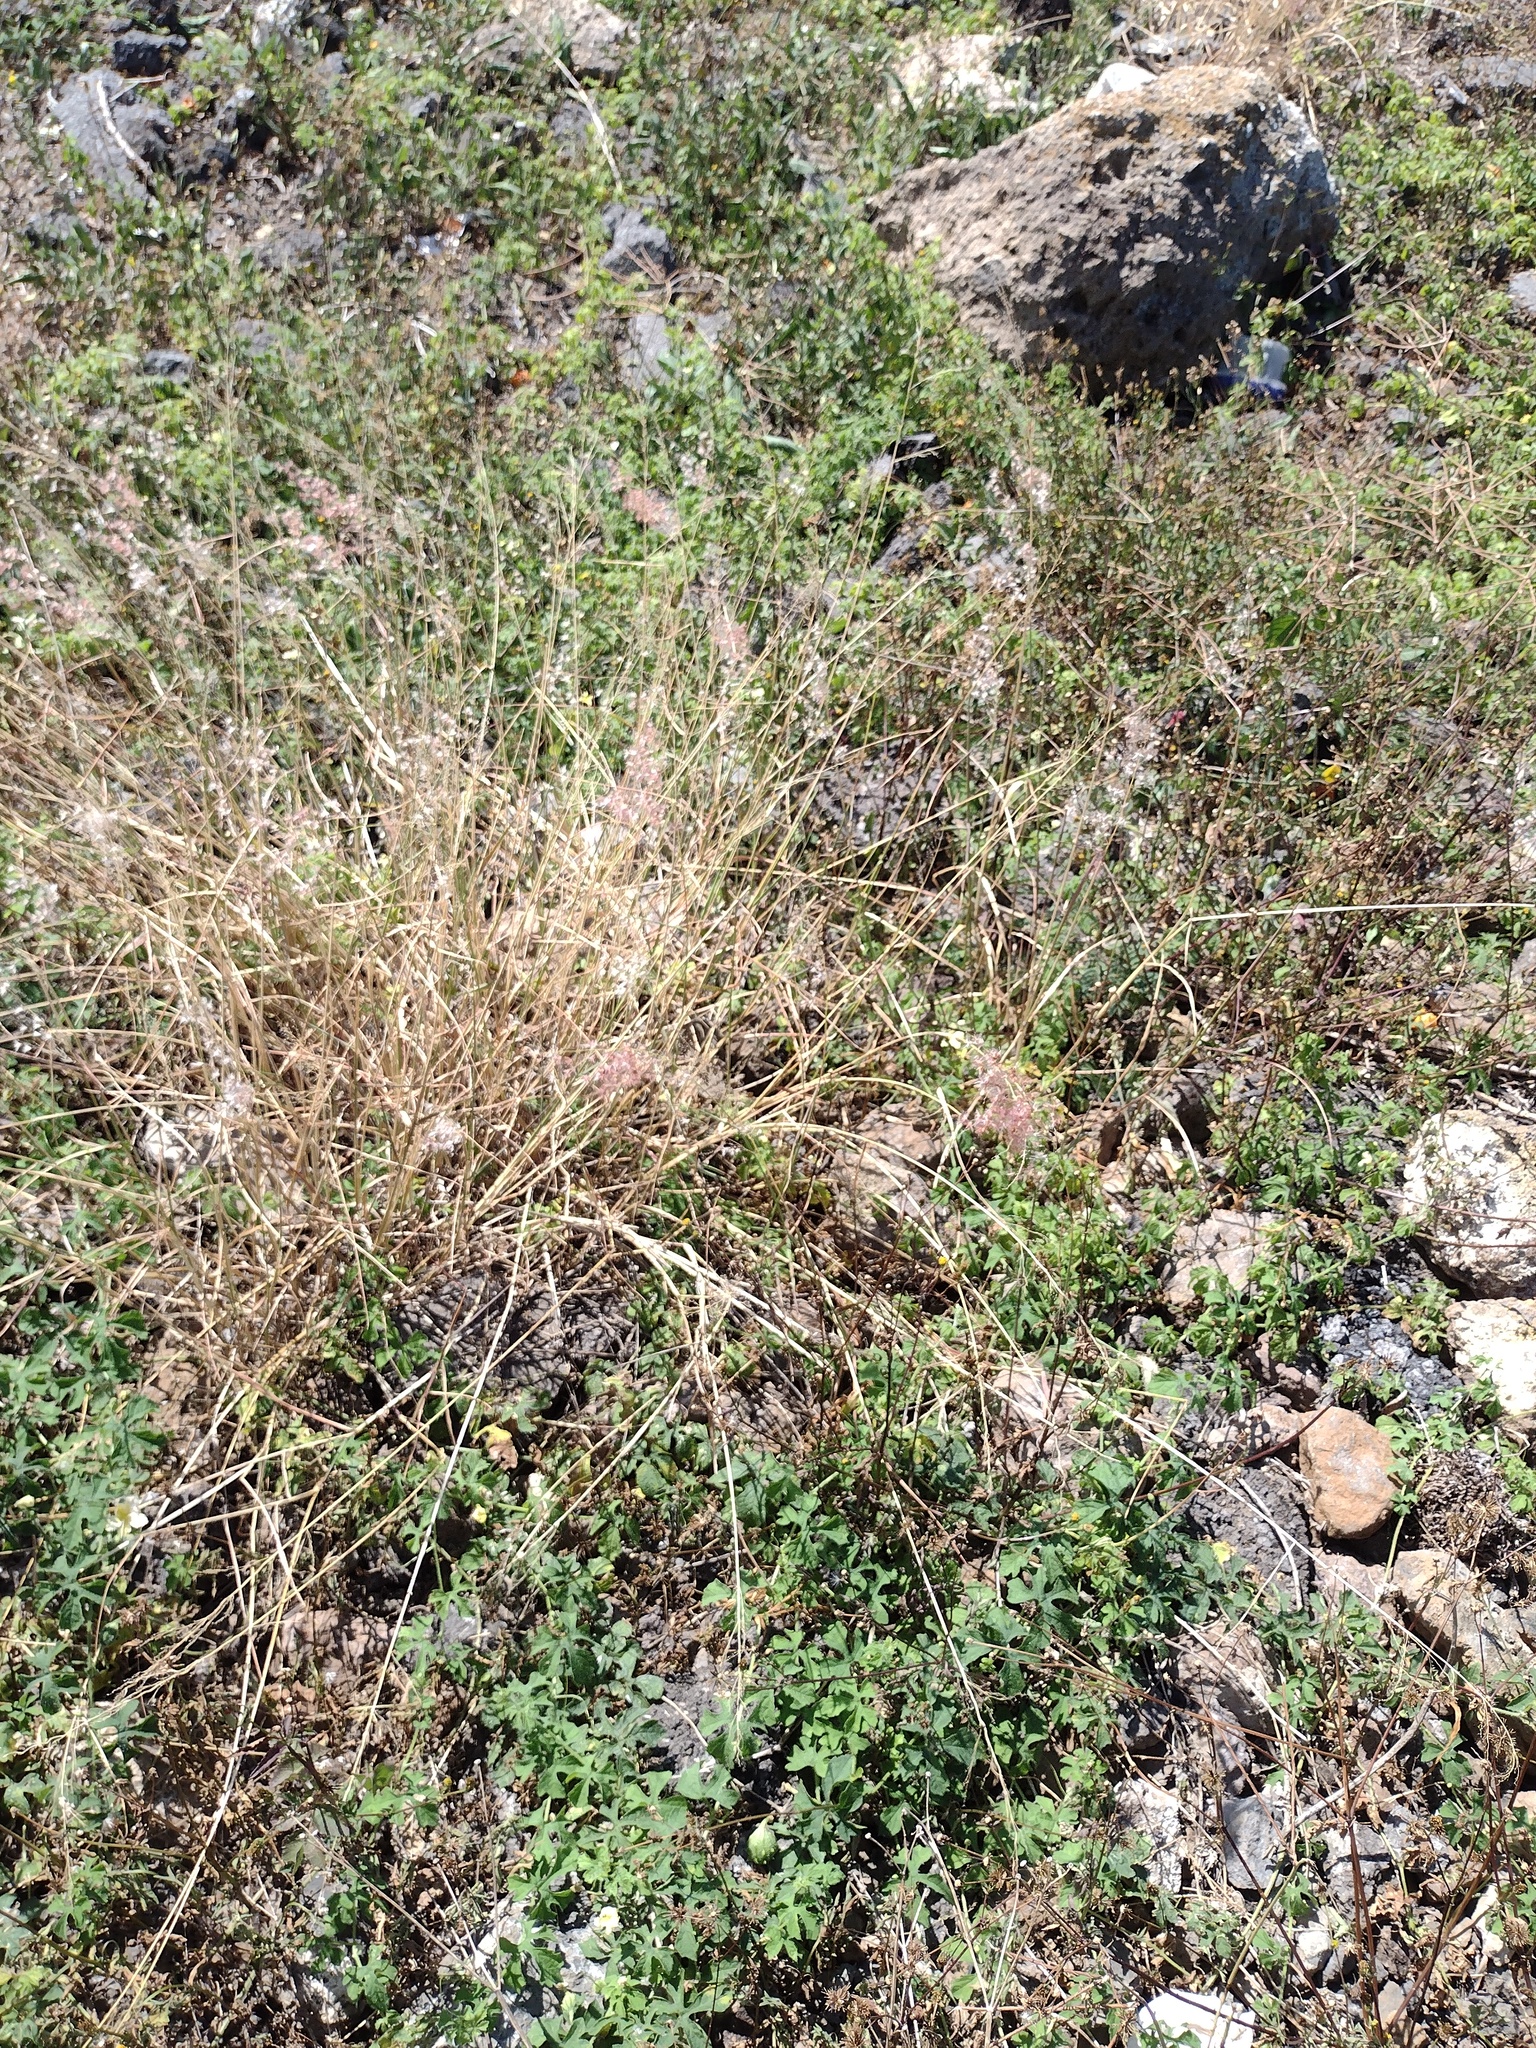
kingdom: Plantae
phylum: Tracheophyta
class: Liliopsida
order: Poales
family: Poaceae
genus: Melinis
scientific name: Melinis repens
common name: Rose natal grass
